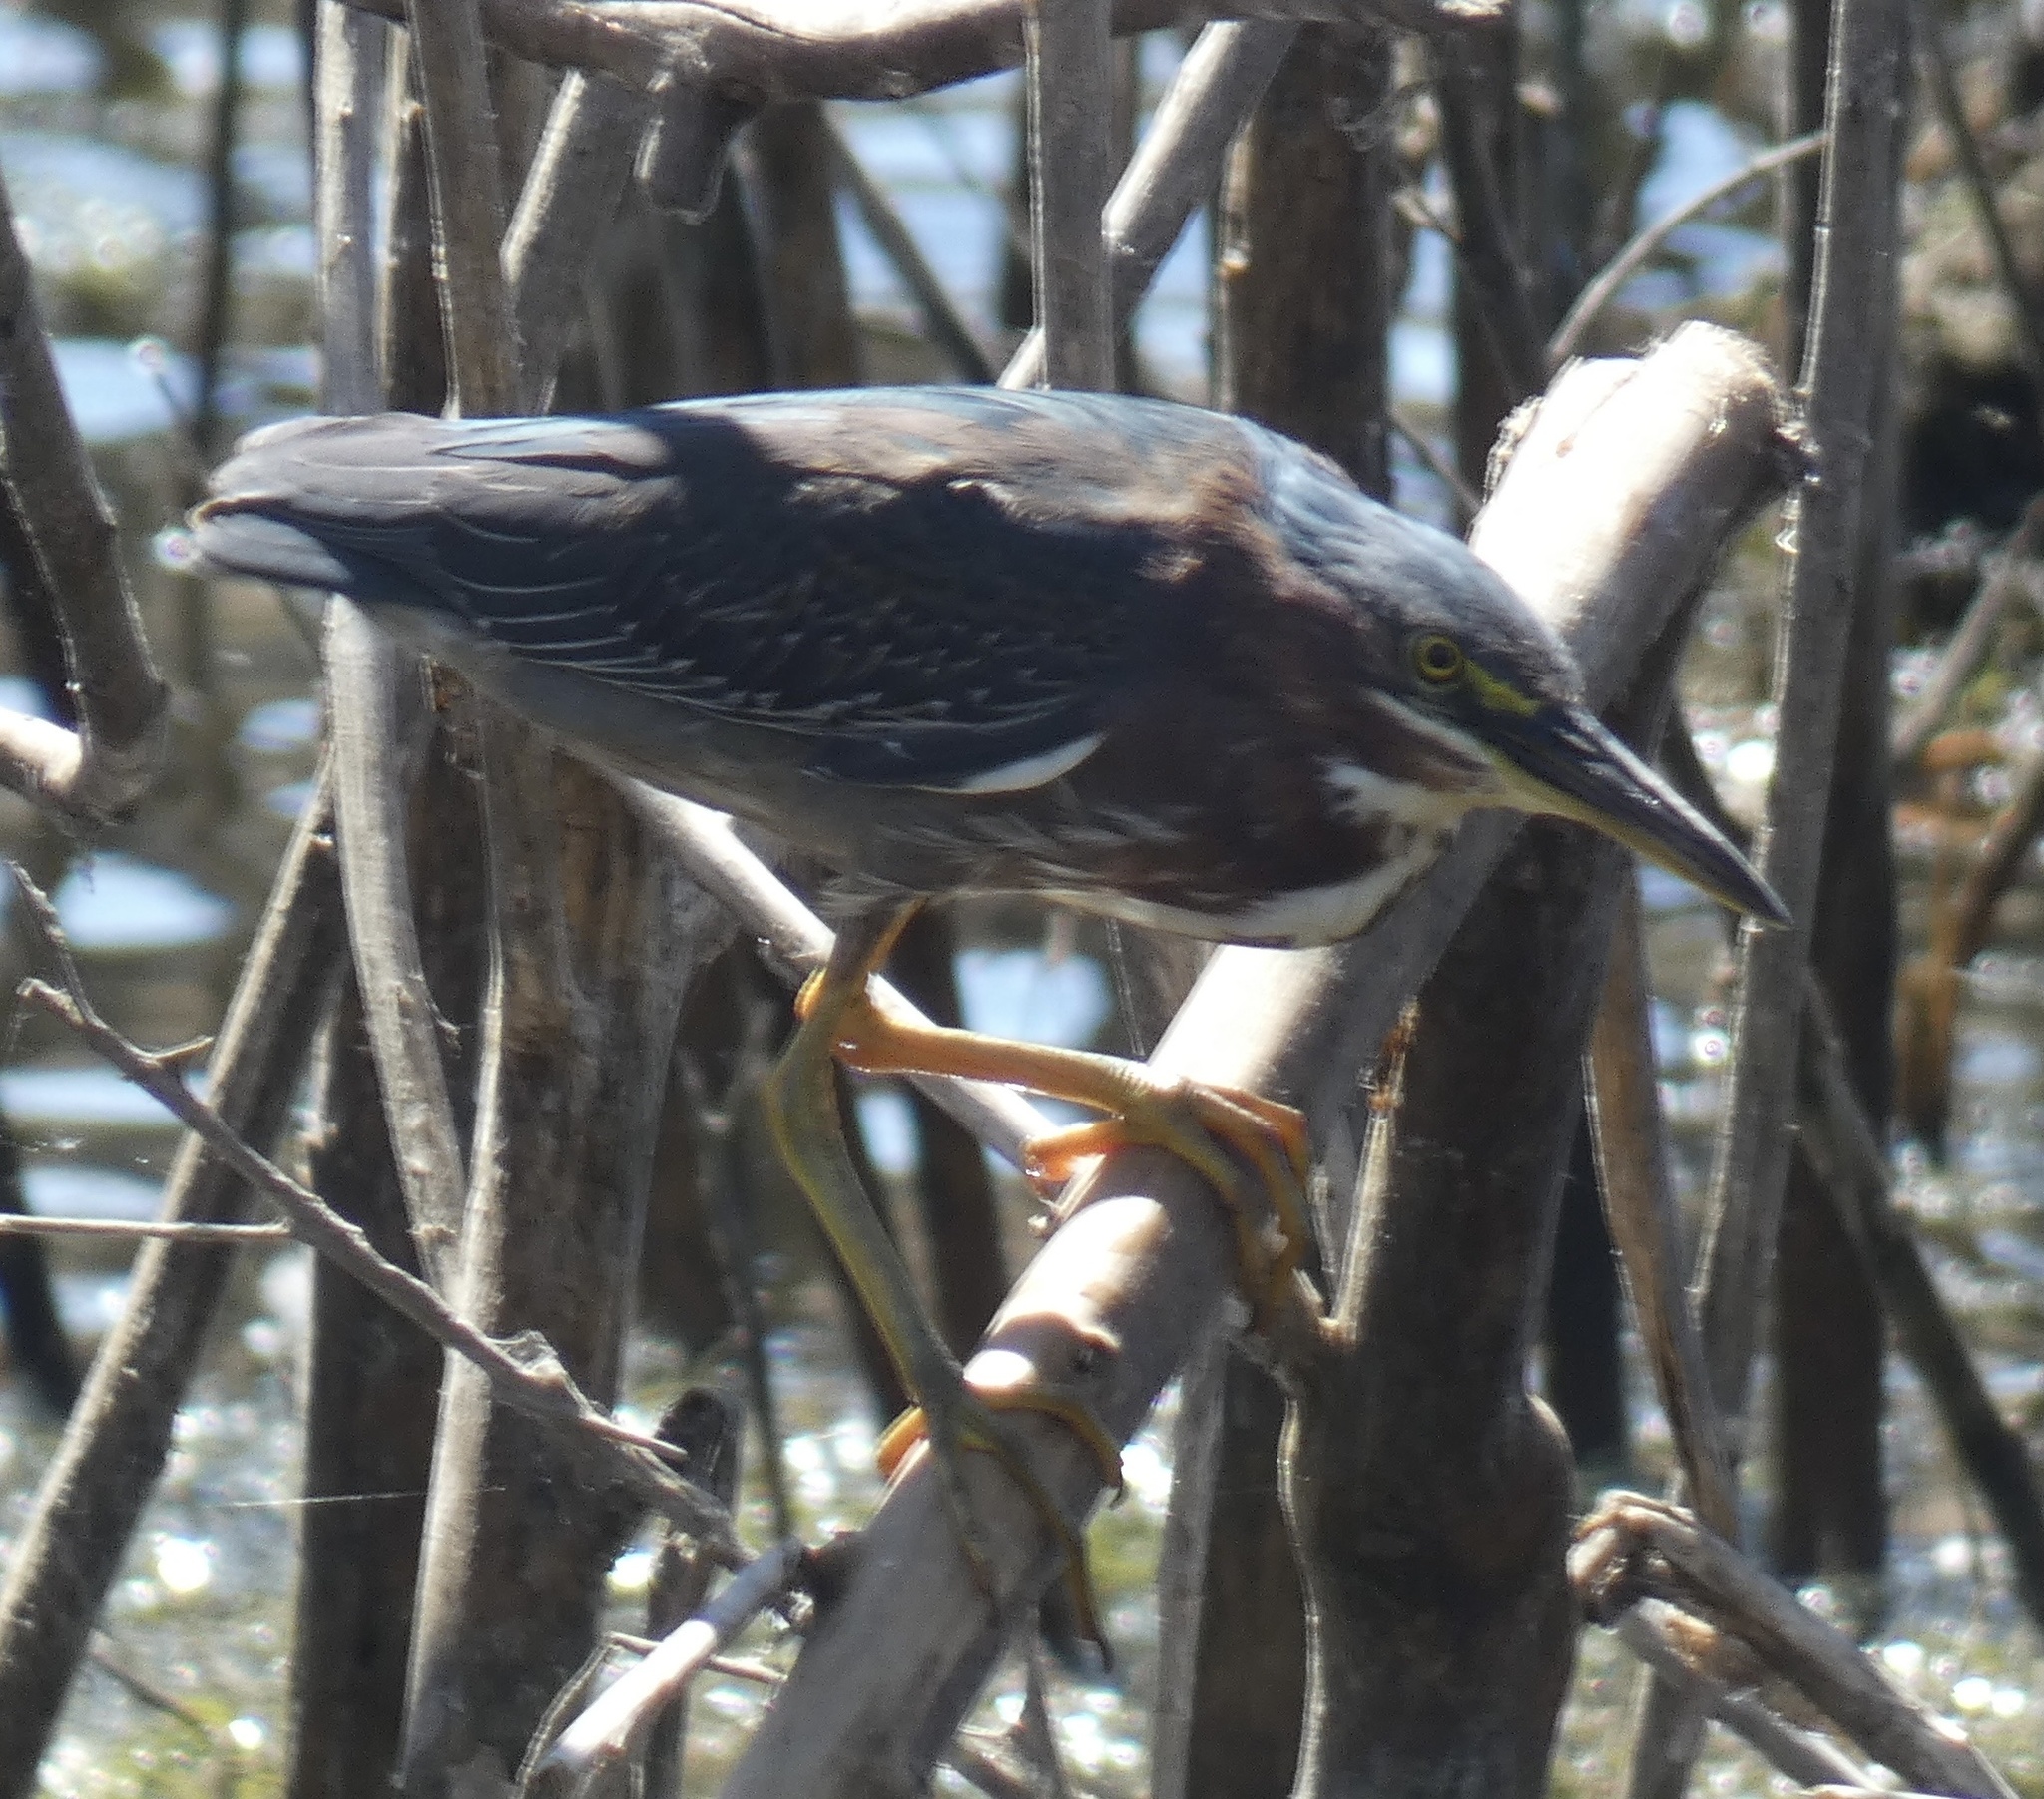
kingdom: Animalia
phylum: Chordata
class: Aves
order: Pelecaniformes
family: Ardeidae
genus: Butorides
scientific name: Butorides virescens
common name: Green heron
